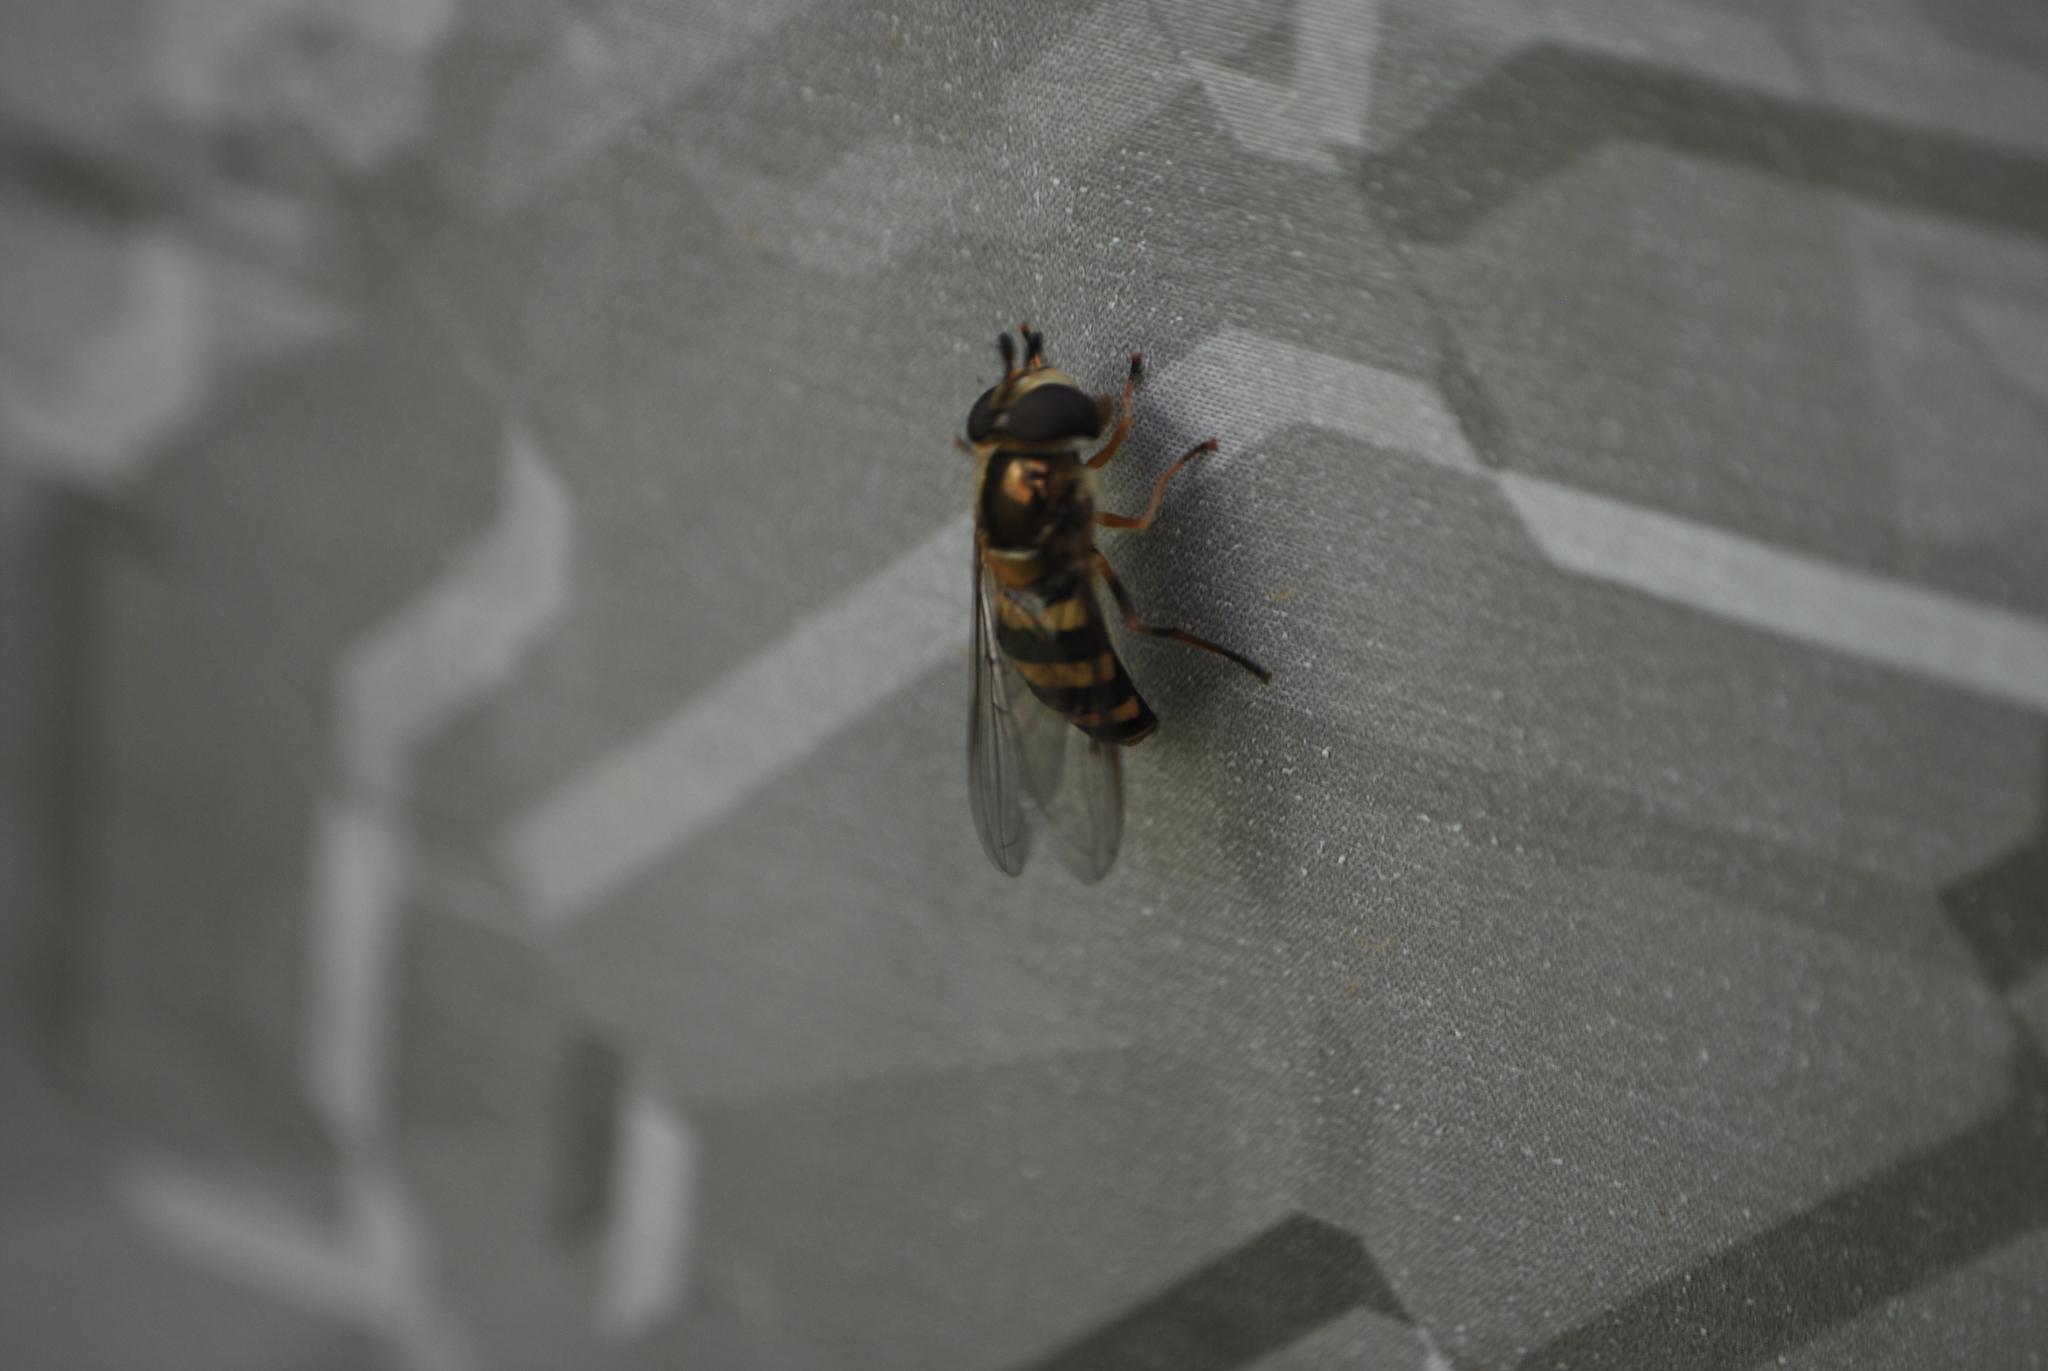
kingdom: Animalia
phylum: Arthropoda
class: Insecta
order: Diptera
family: Syrphidae
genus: Eupeodes
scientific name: Eupeodes
